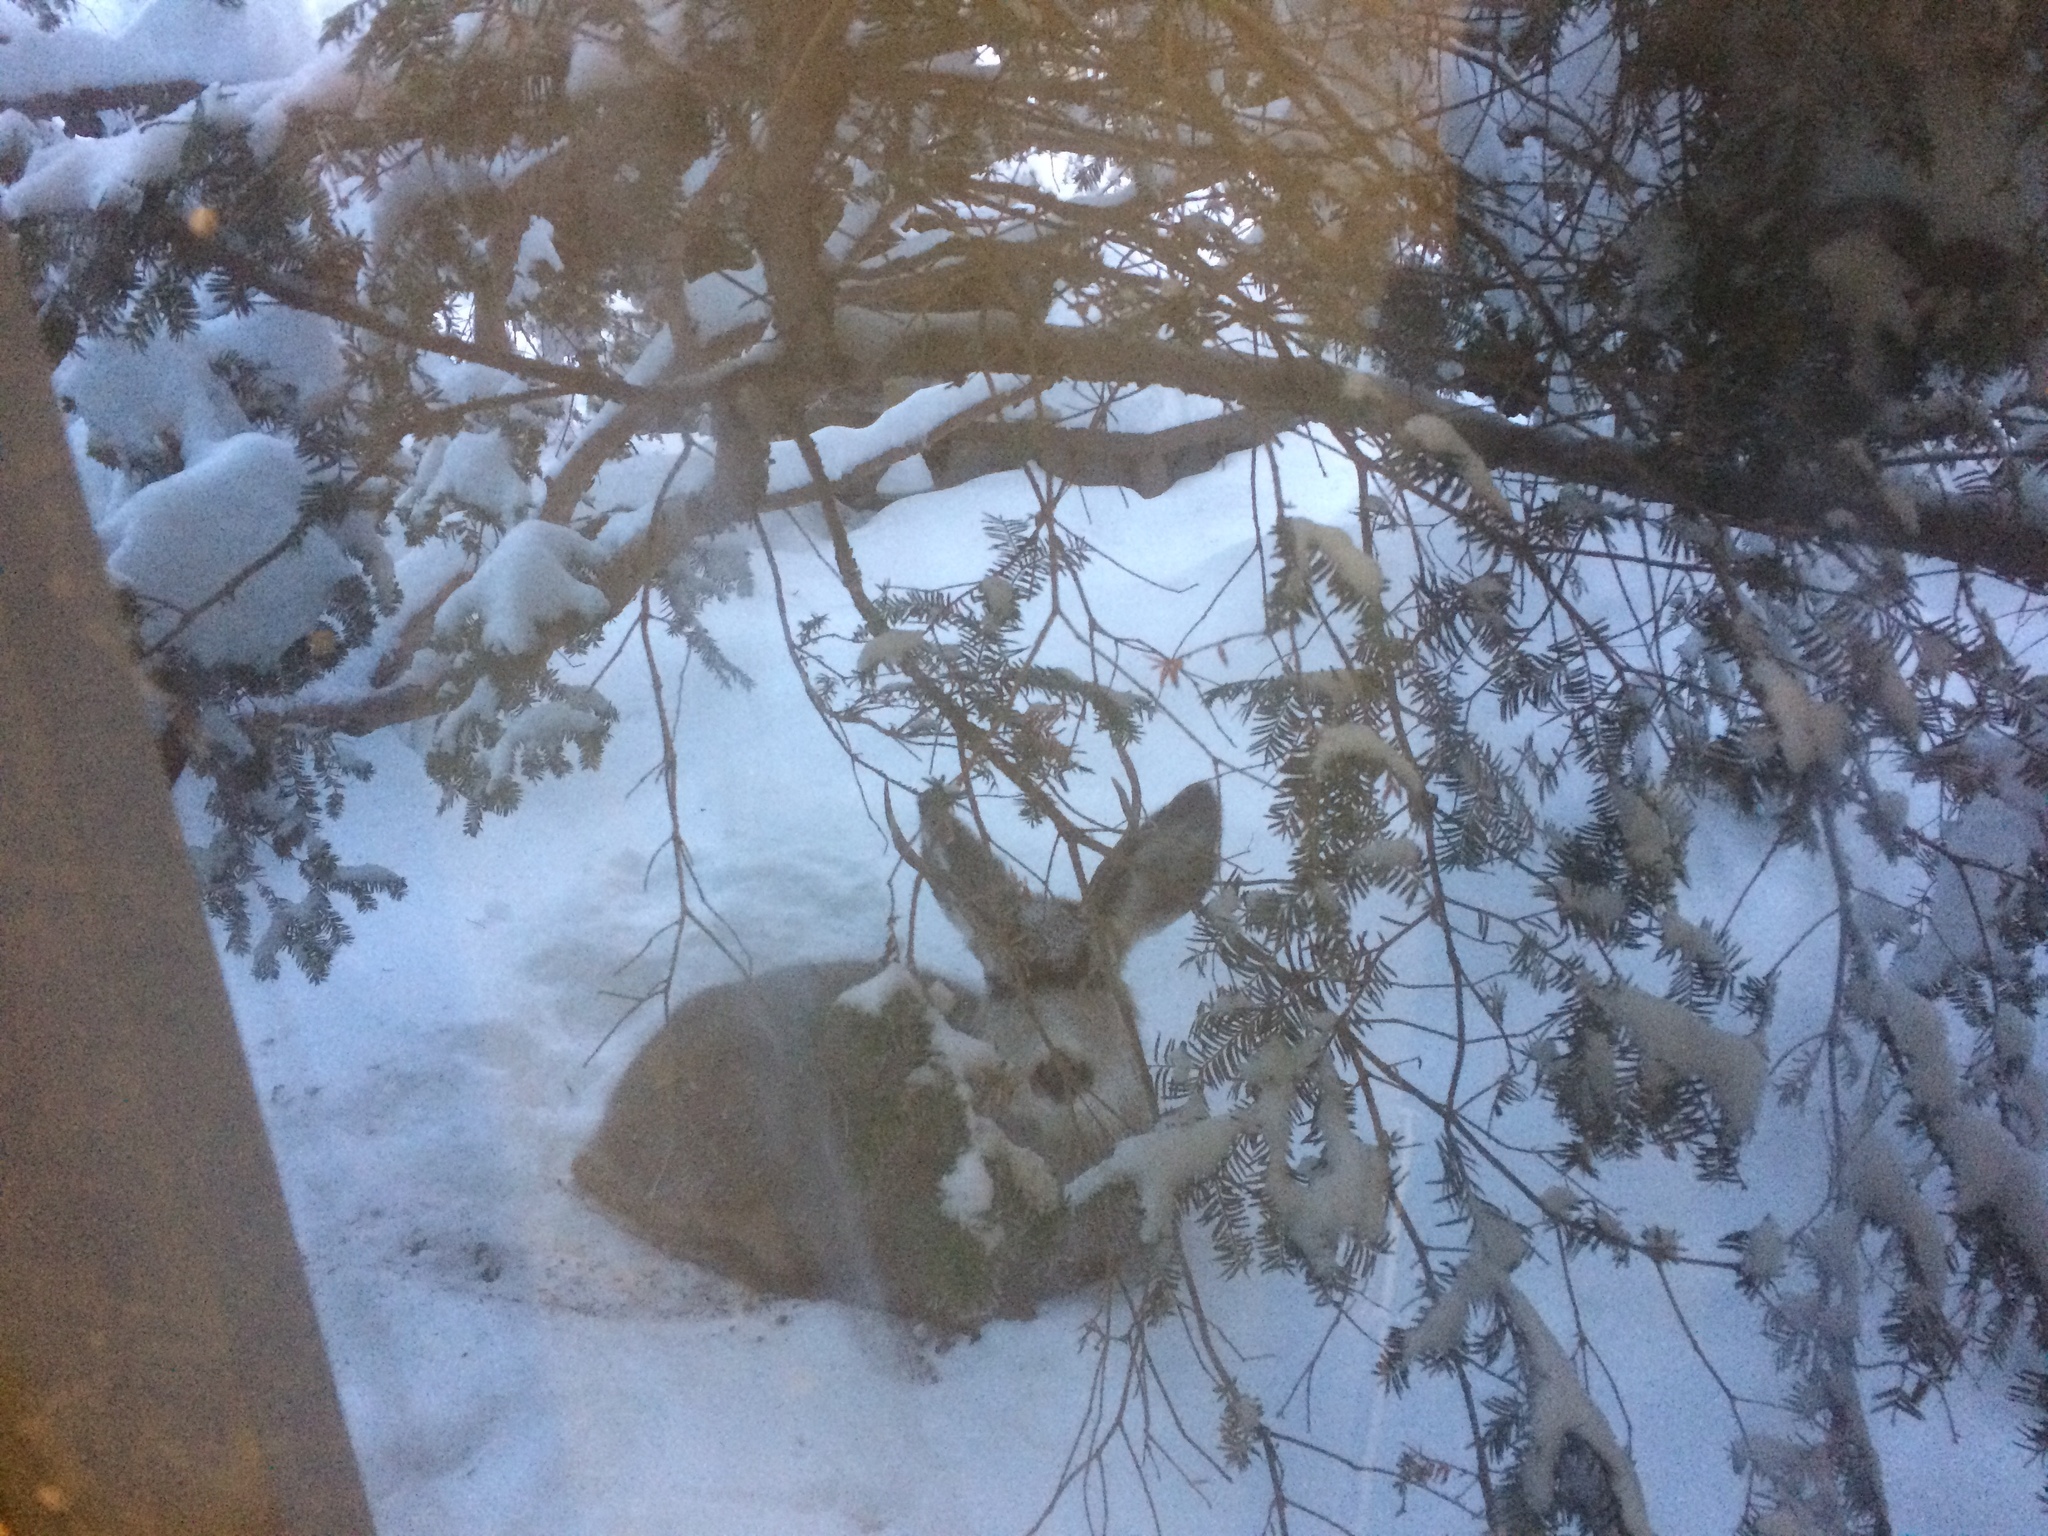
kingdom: Animalia
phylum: Chordata
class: Mammalia
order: Artiodactyla
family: Cervidae
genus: Odocoileus
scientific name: Odocoileus hemionus
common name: Mule deer
